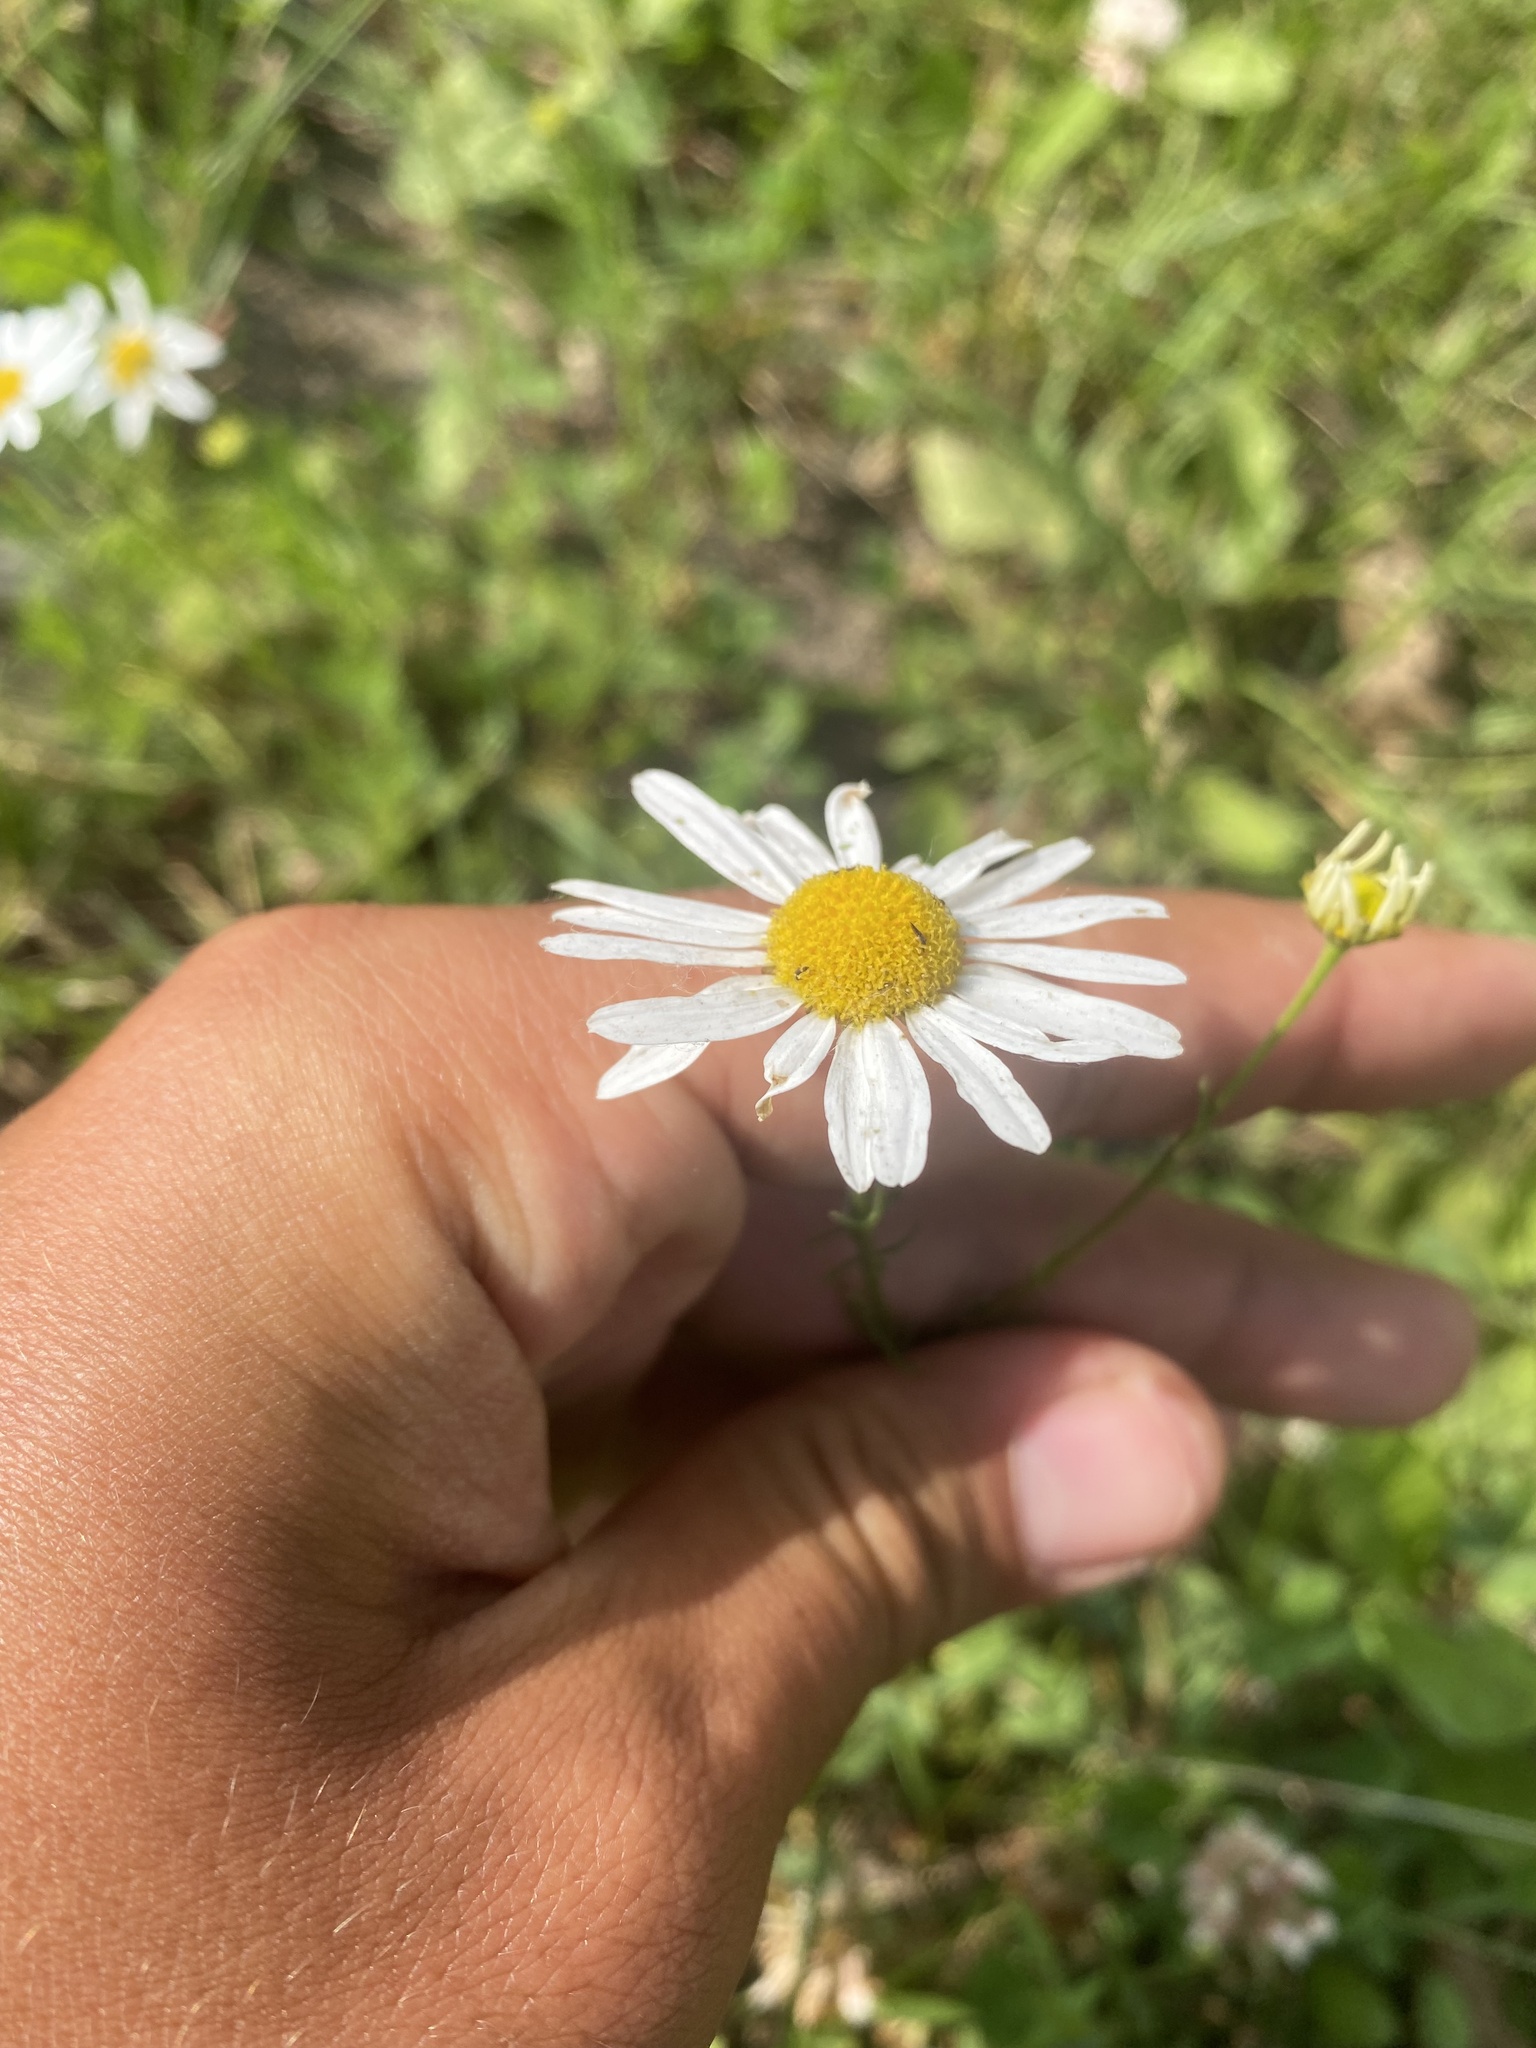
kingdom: Plantae
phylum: Tracheophyta
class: Magnoliopsida
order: Asterales
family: Asteraceae
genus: Tripleurospermum
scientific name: Tripleurospermum inodorum
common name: Scentless mayweed
